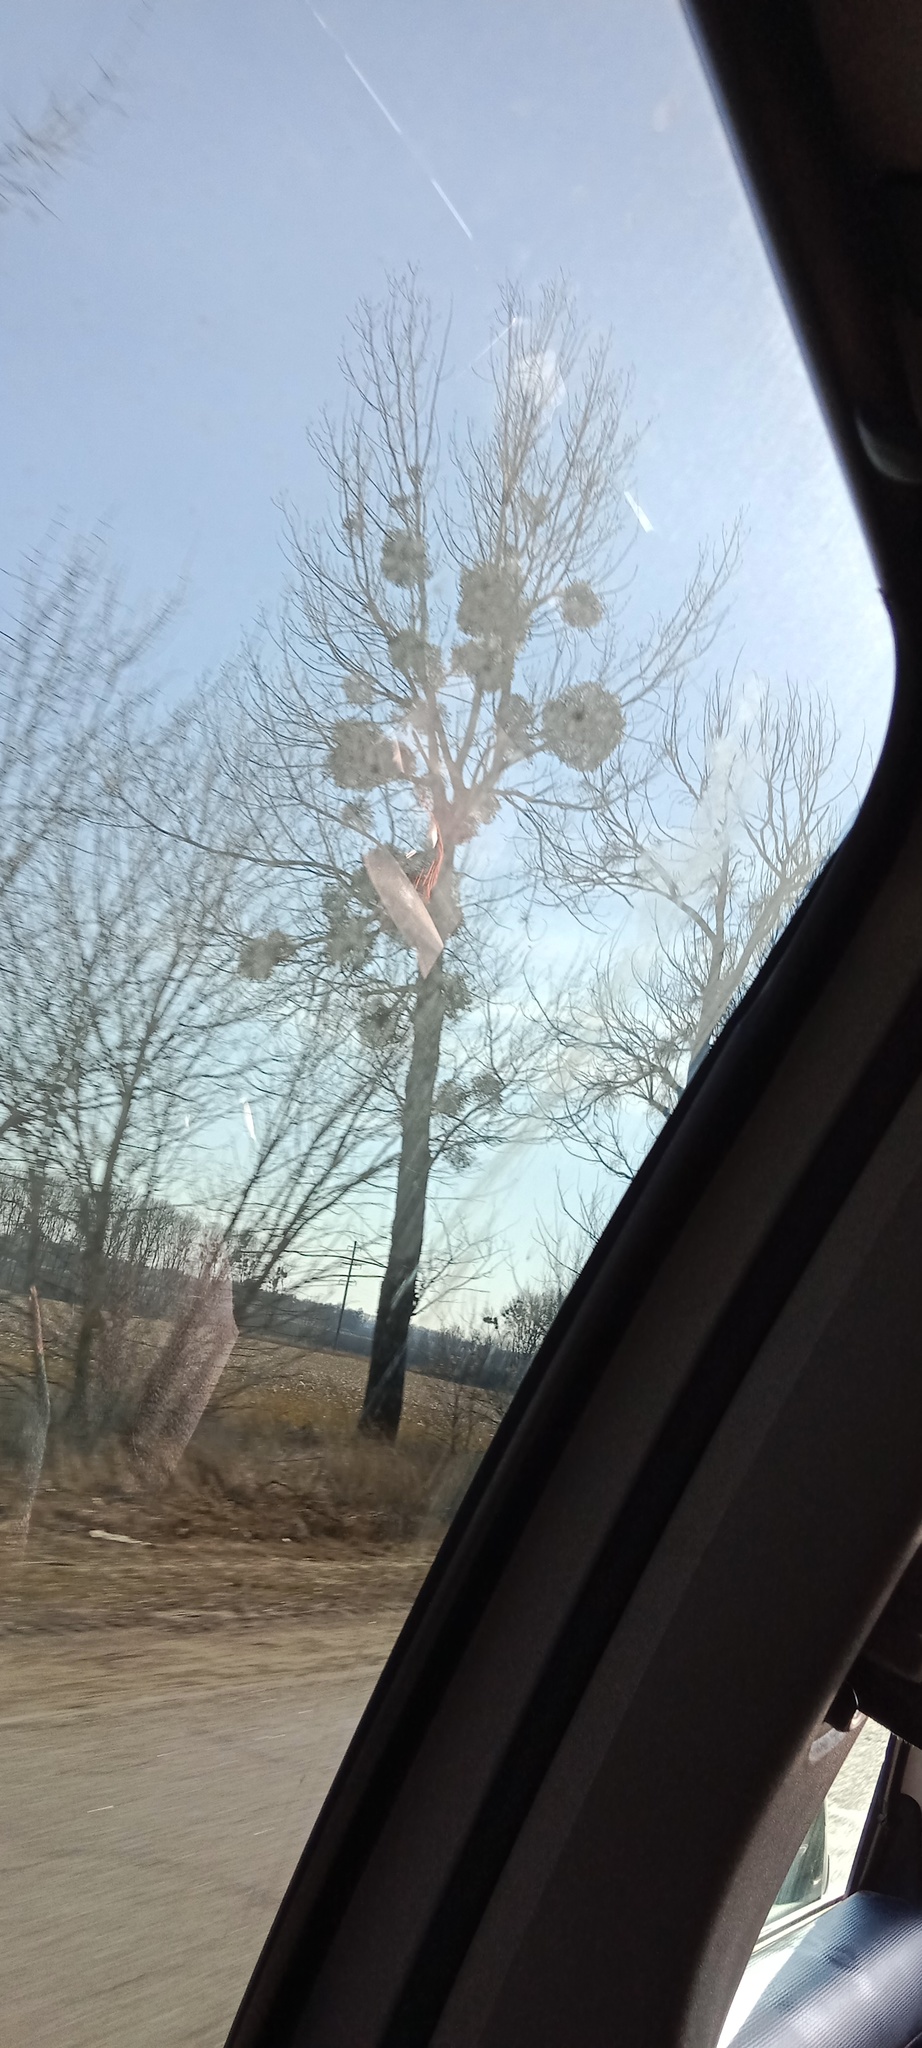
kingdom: Plantae
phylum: Tracheophyta
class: Magnoliopsida
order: Santalales
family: Viscaceae
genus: Viscum
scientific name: Viscum album
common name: Mistletoe
